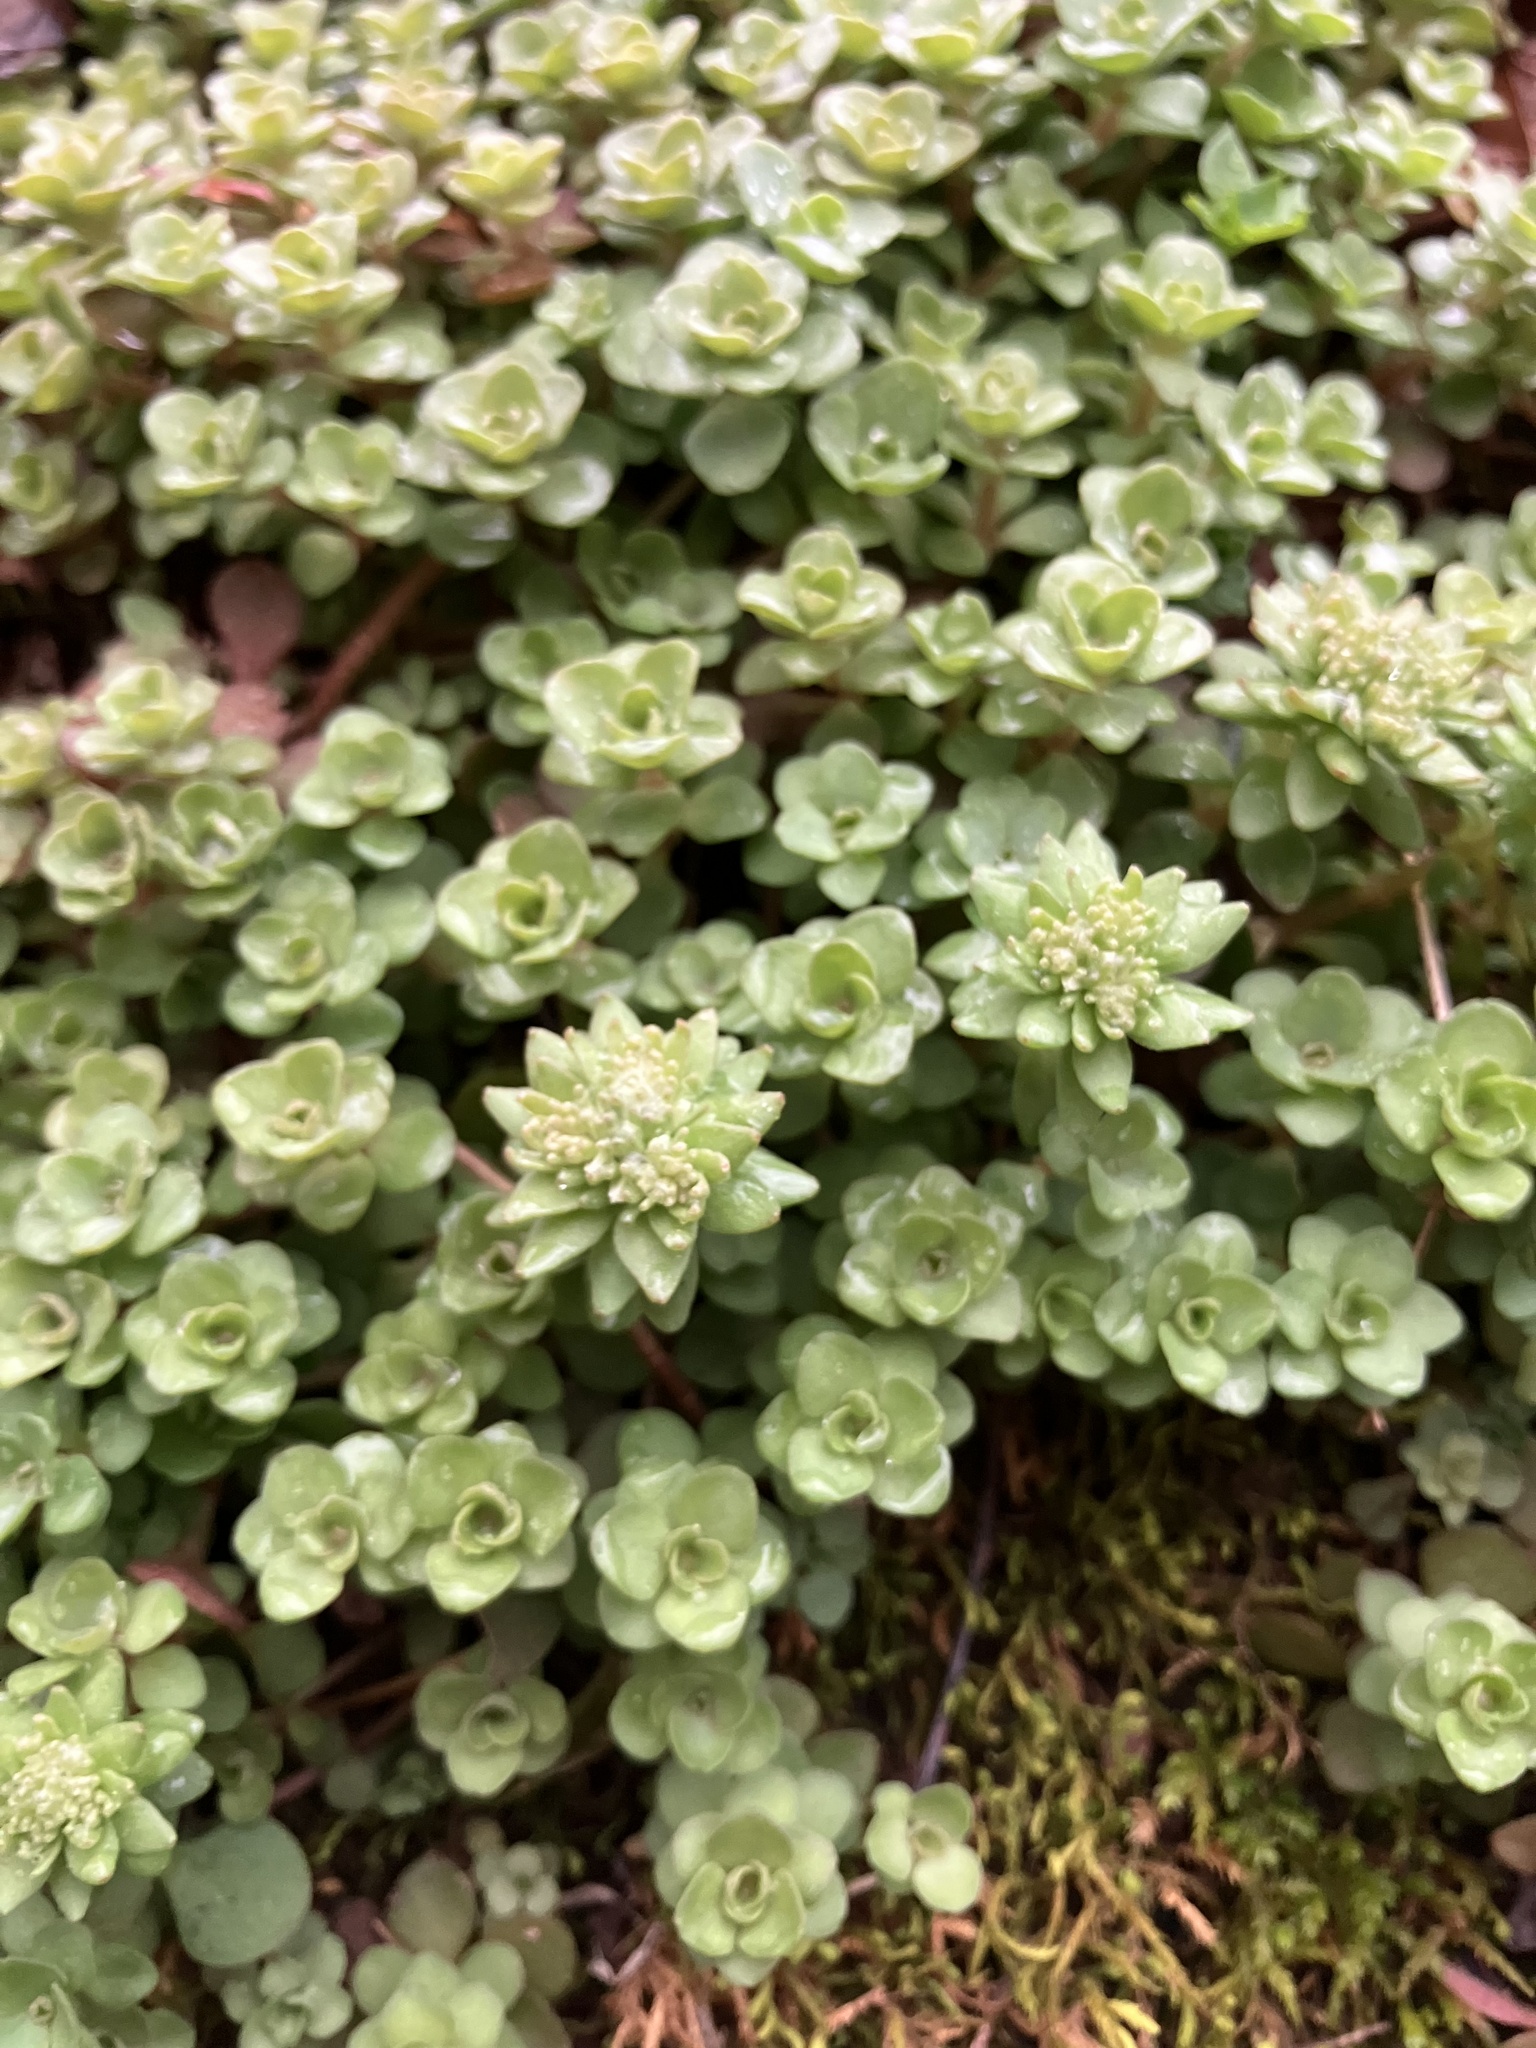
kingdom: Plantae
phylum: Tracheophyta
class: Magnoliopsida
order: Saxifragales
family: Crassulaceae
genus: Sedum
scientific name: Sedum ternatum
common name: Wild stonecrop
